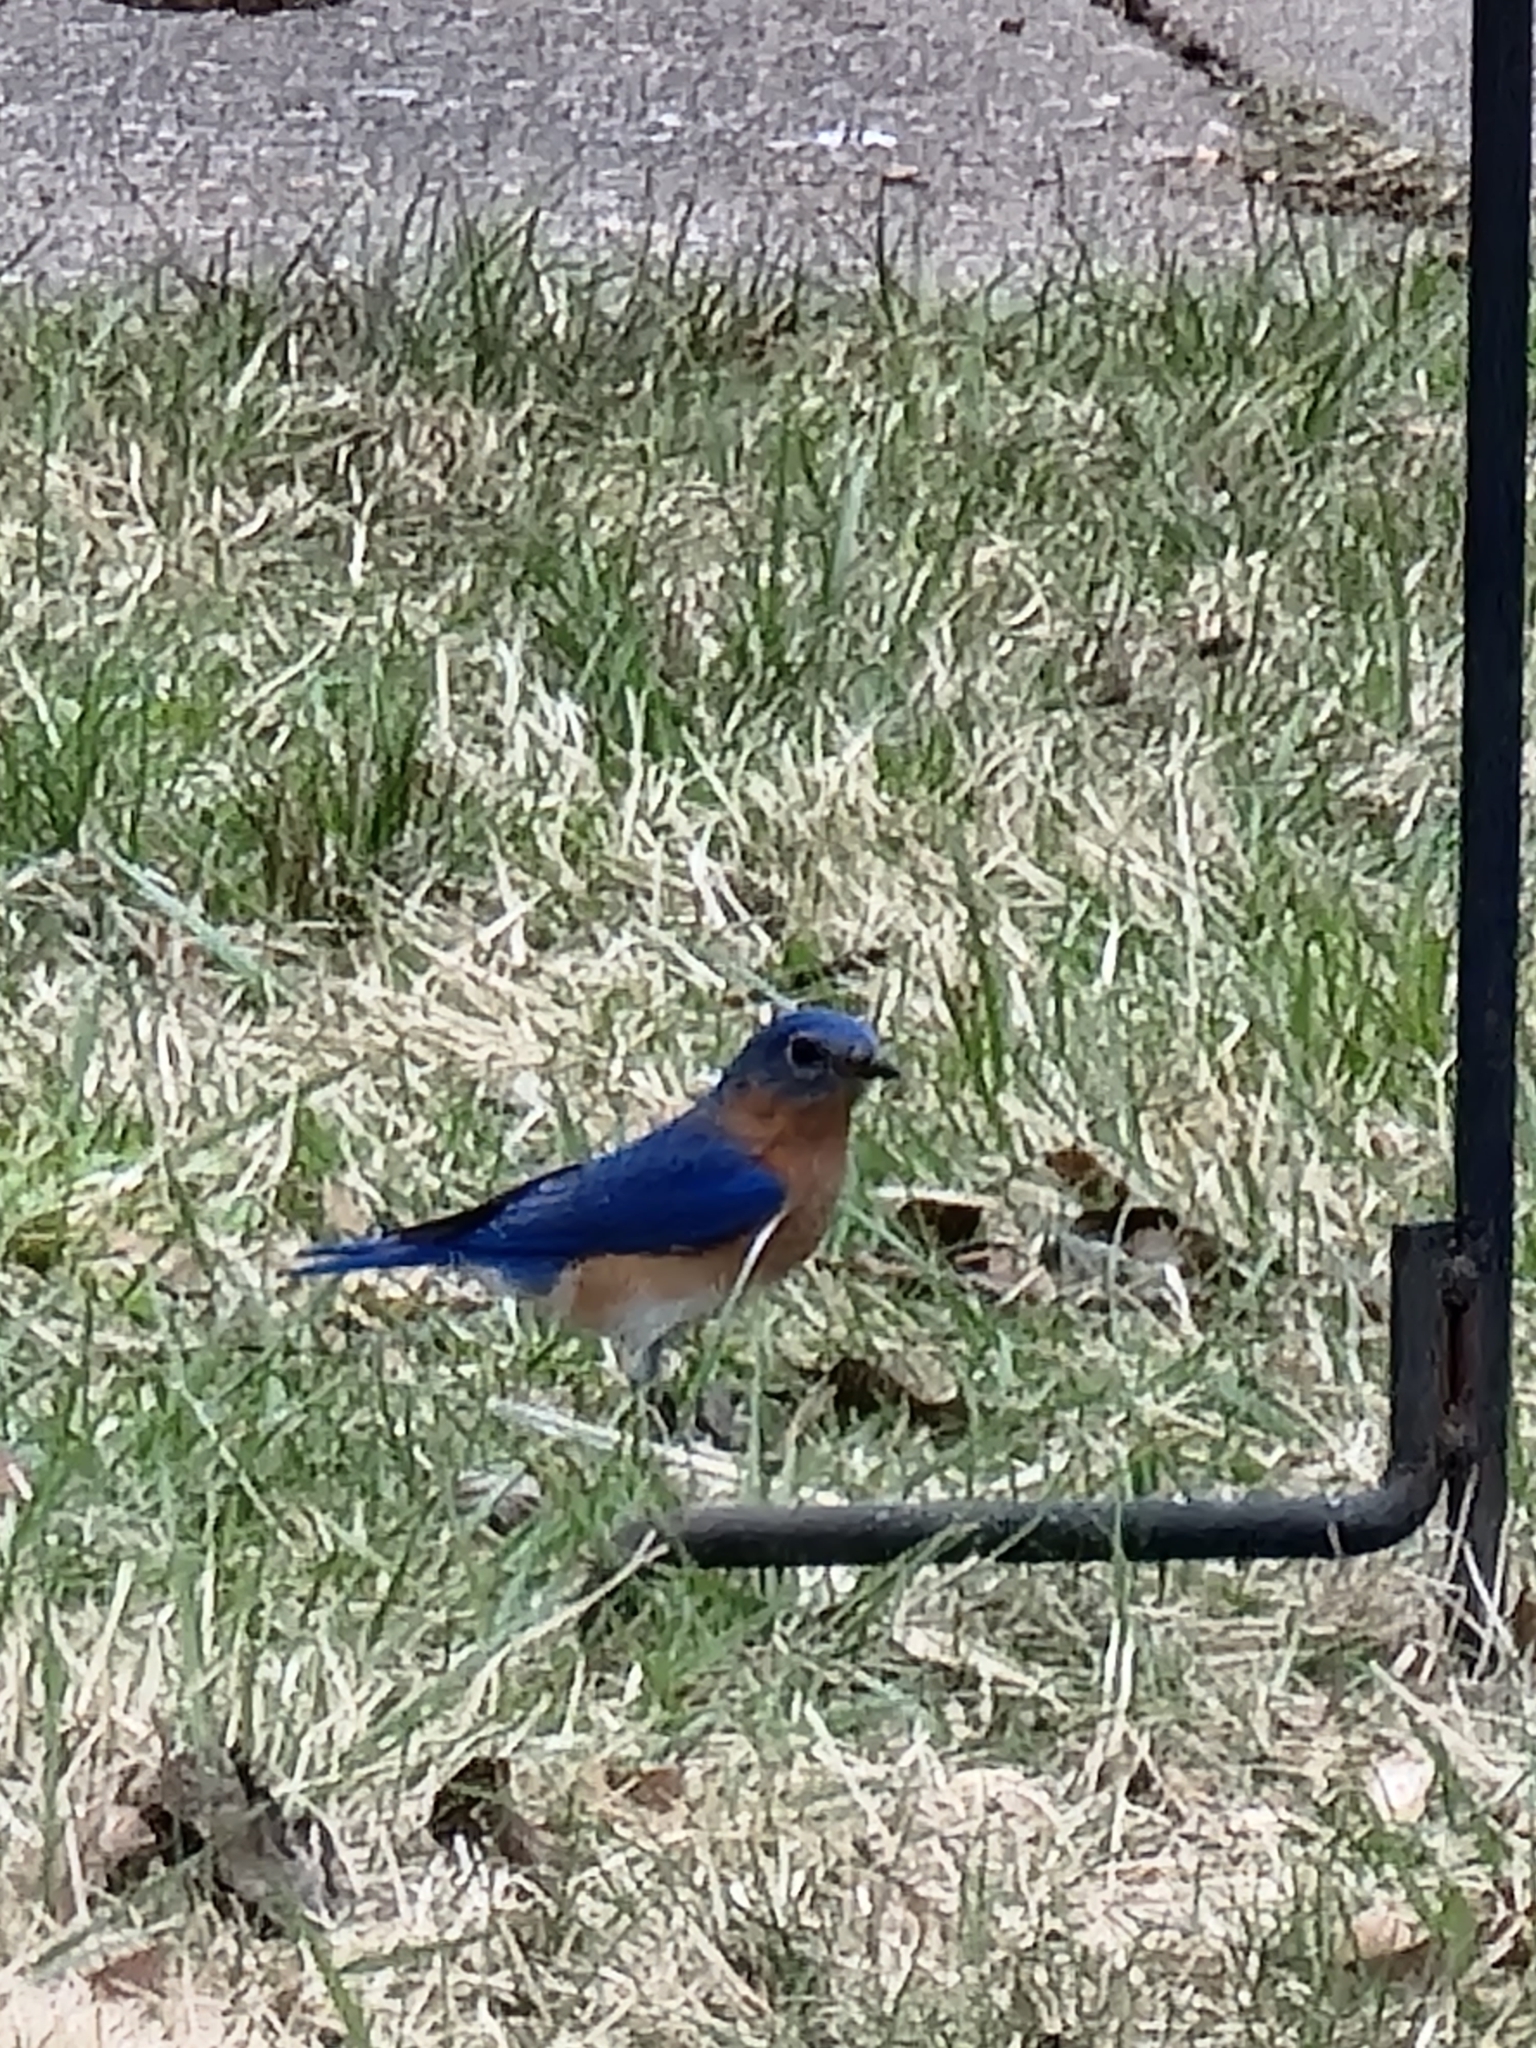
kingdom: Animalia
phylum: Chordata
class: Aves
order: Passeriformes
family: Turdidae
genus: Sialia
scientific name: Sialia sialis
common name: Eastern bluebird
